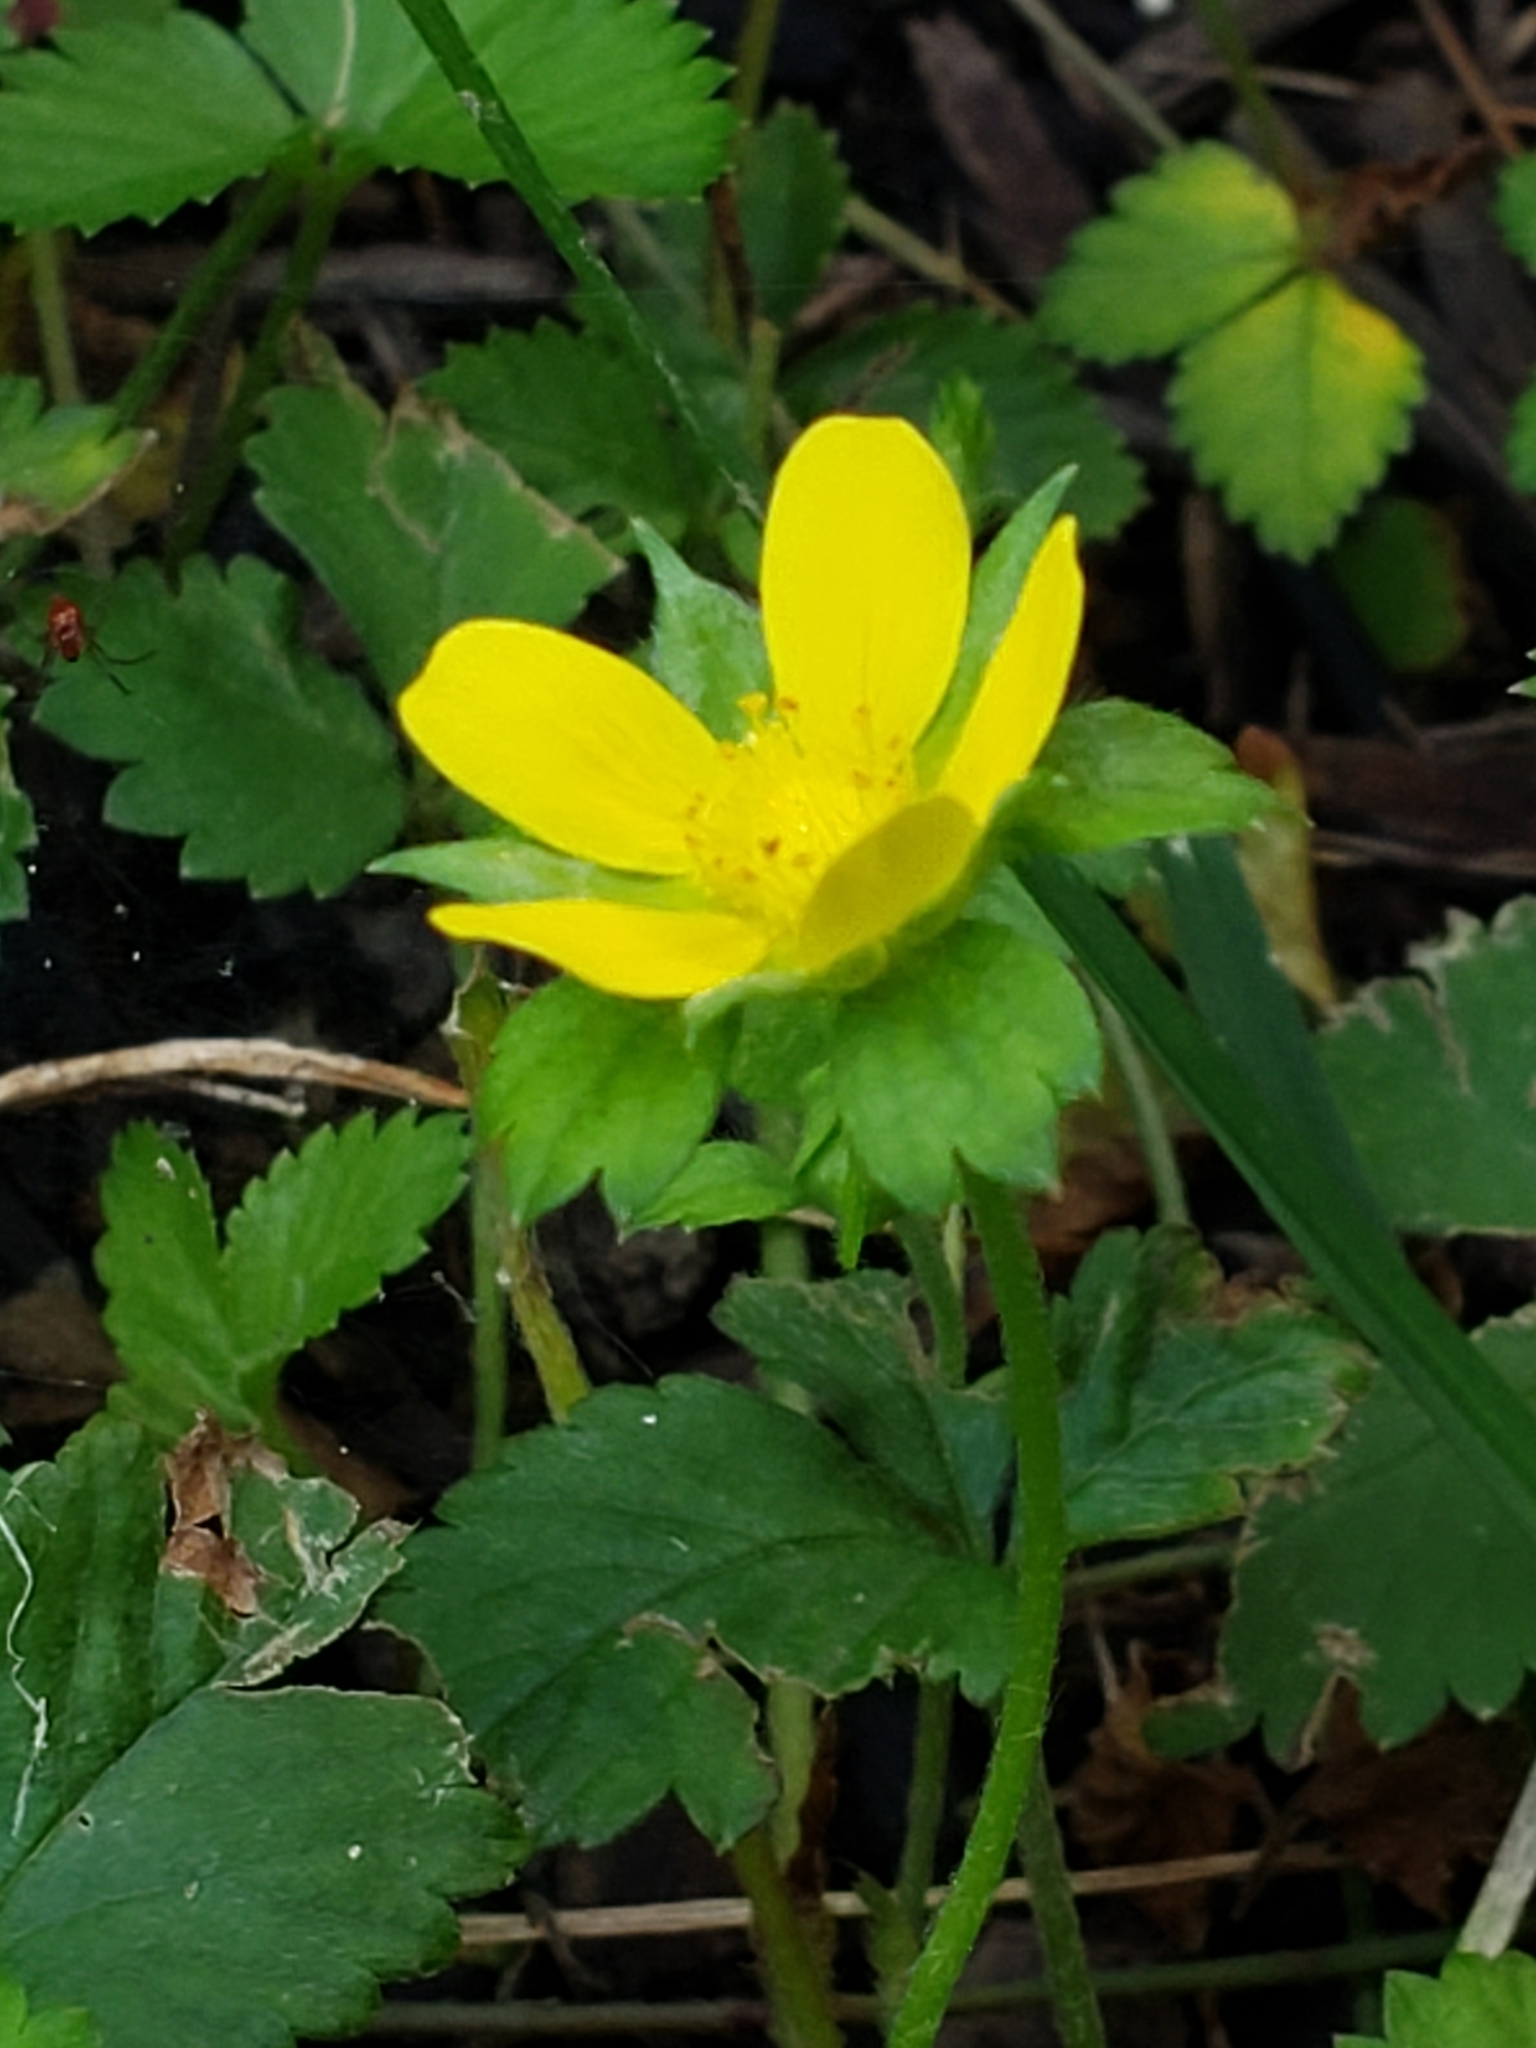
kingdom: Plantae
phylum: Tracheophyta
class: Magnoliopsida
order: Rosales
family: Rosaceae
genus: Potentilla
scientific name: Potentilla indica
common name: Yellow-flowered strawberry
